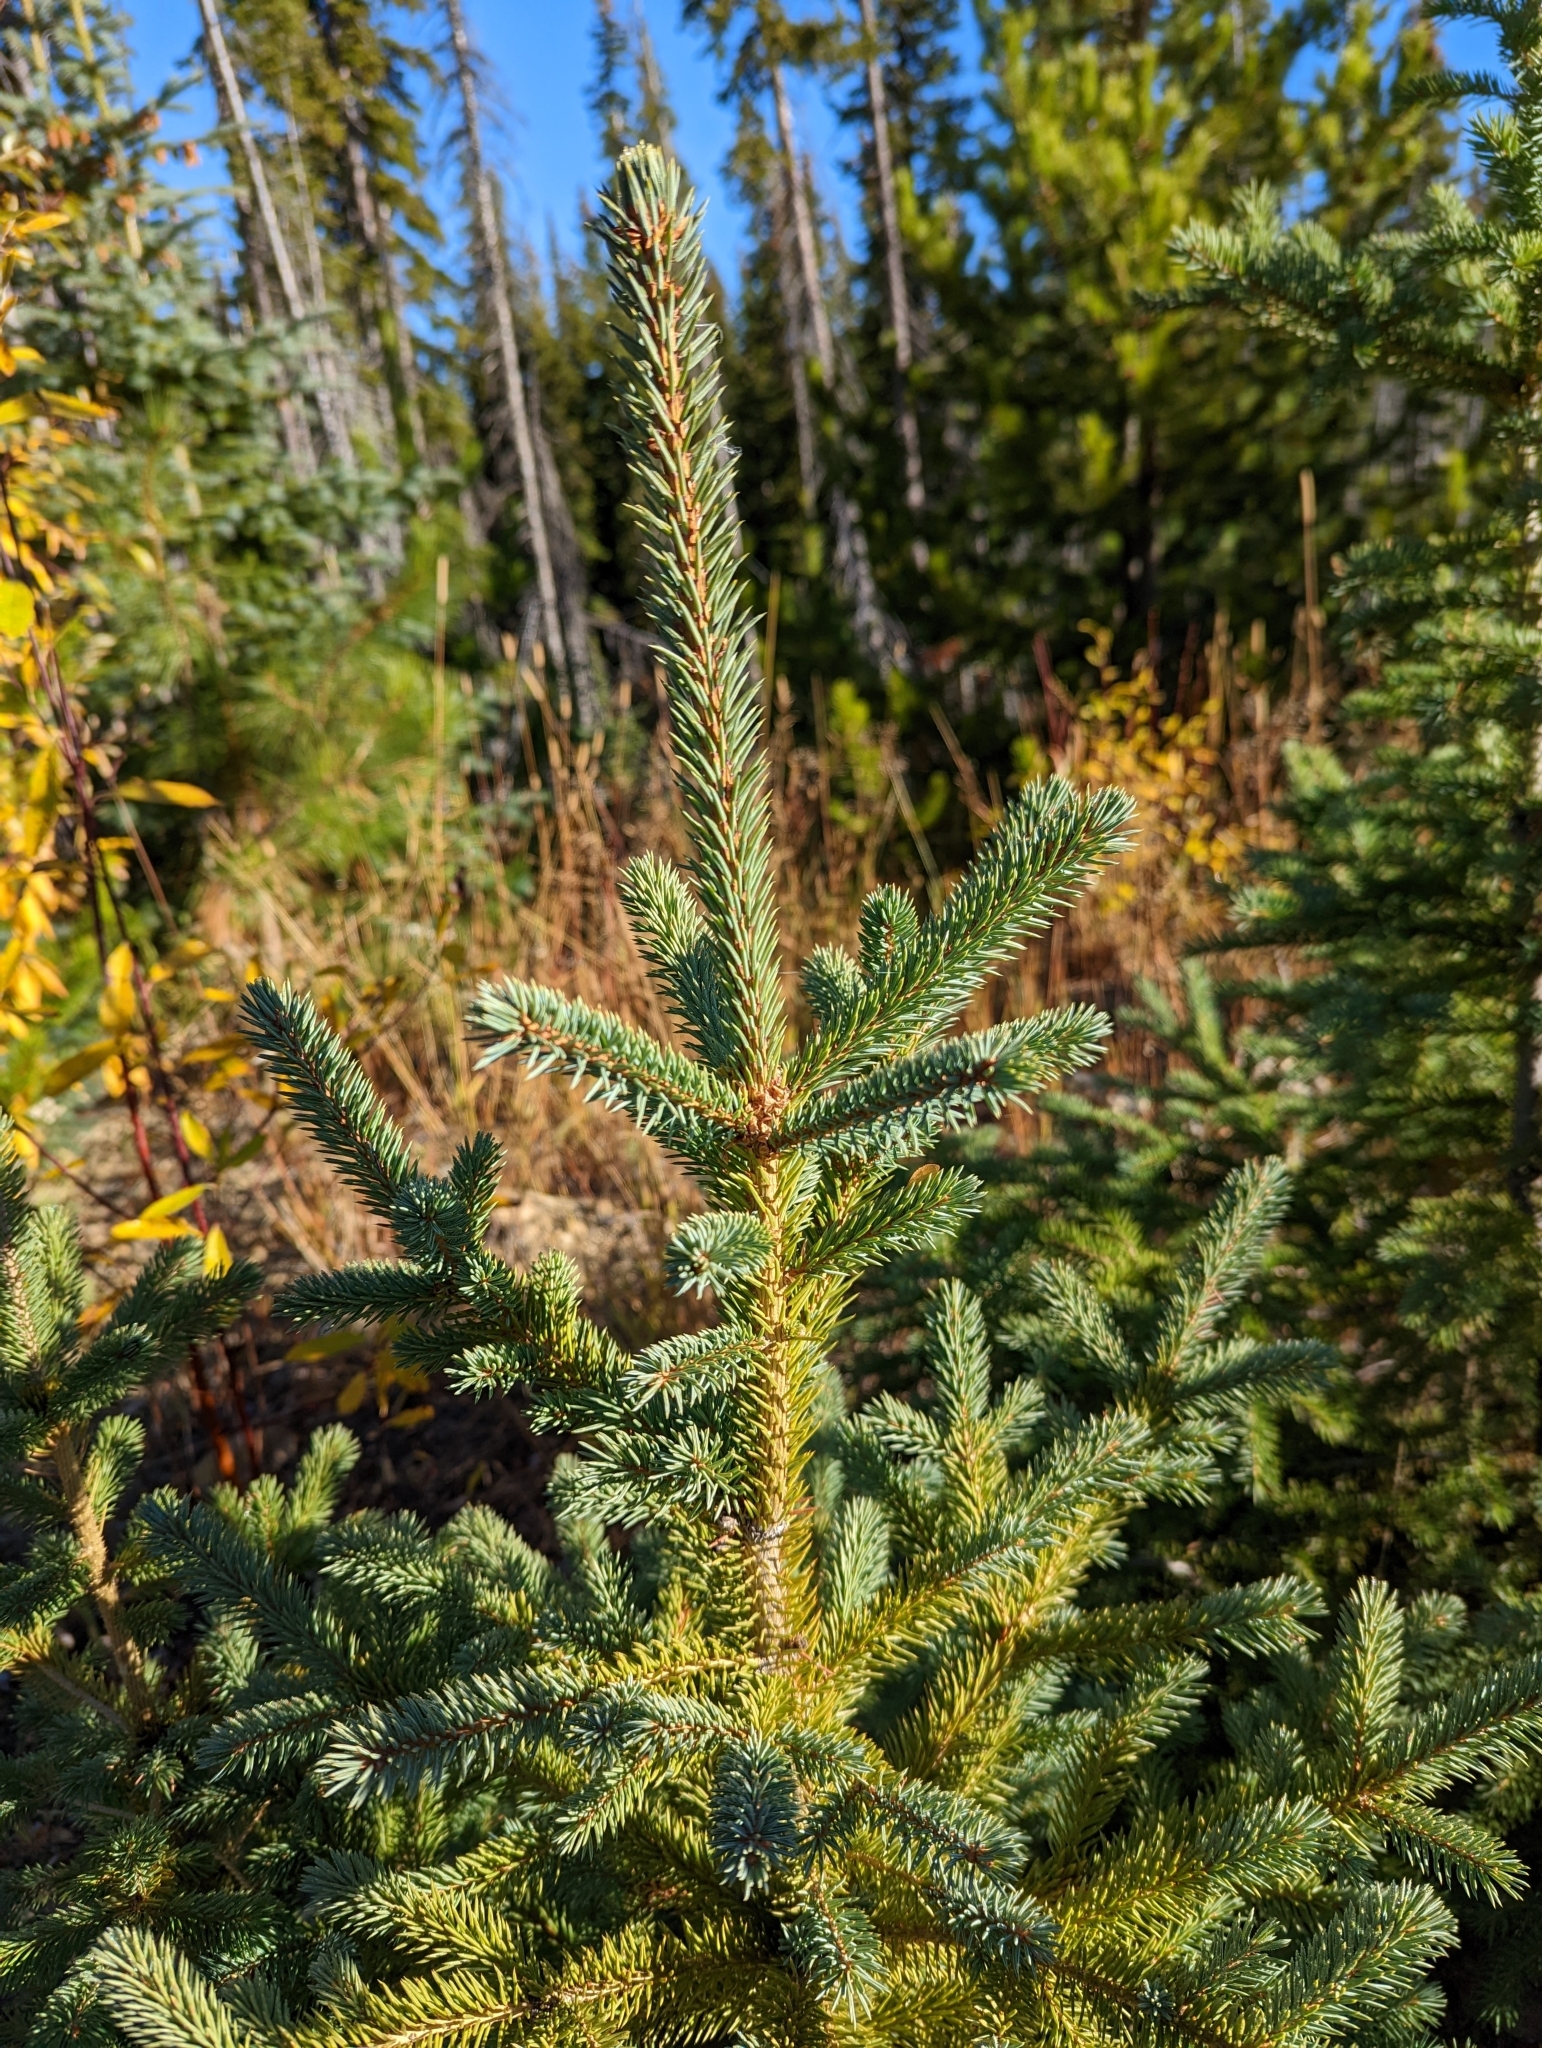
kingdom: Plantae
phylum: Tracheophyta
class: Pinopsida
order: Pinales
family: Pinaceae
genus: Picea
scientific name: Picea engelmannii
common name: Engelmann spruce
